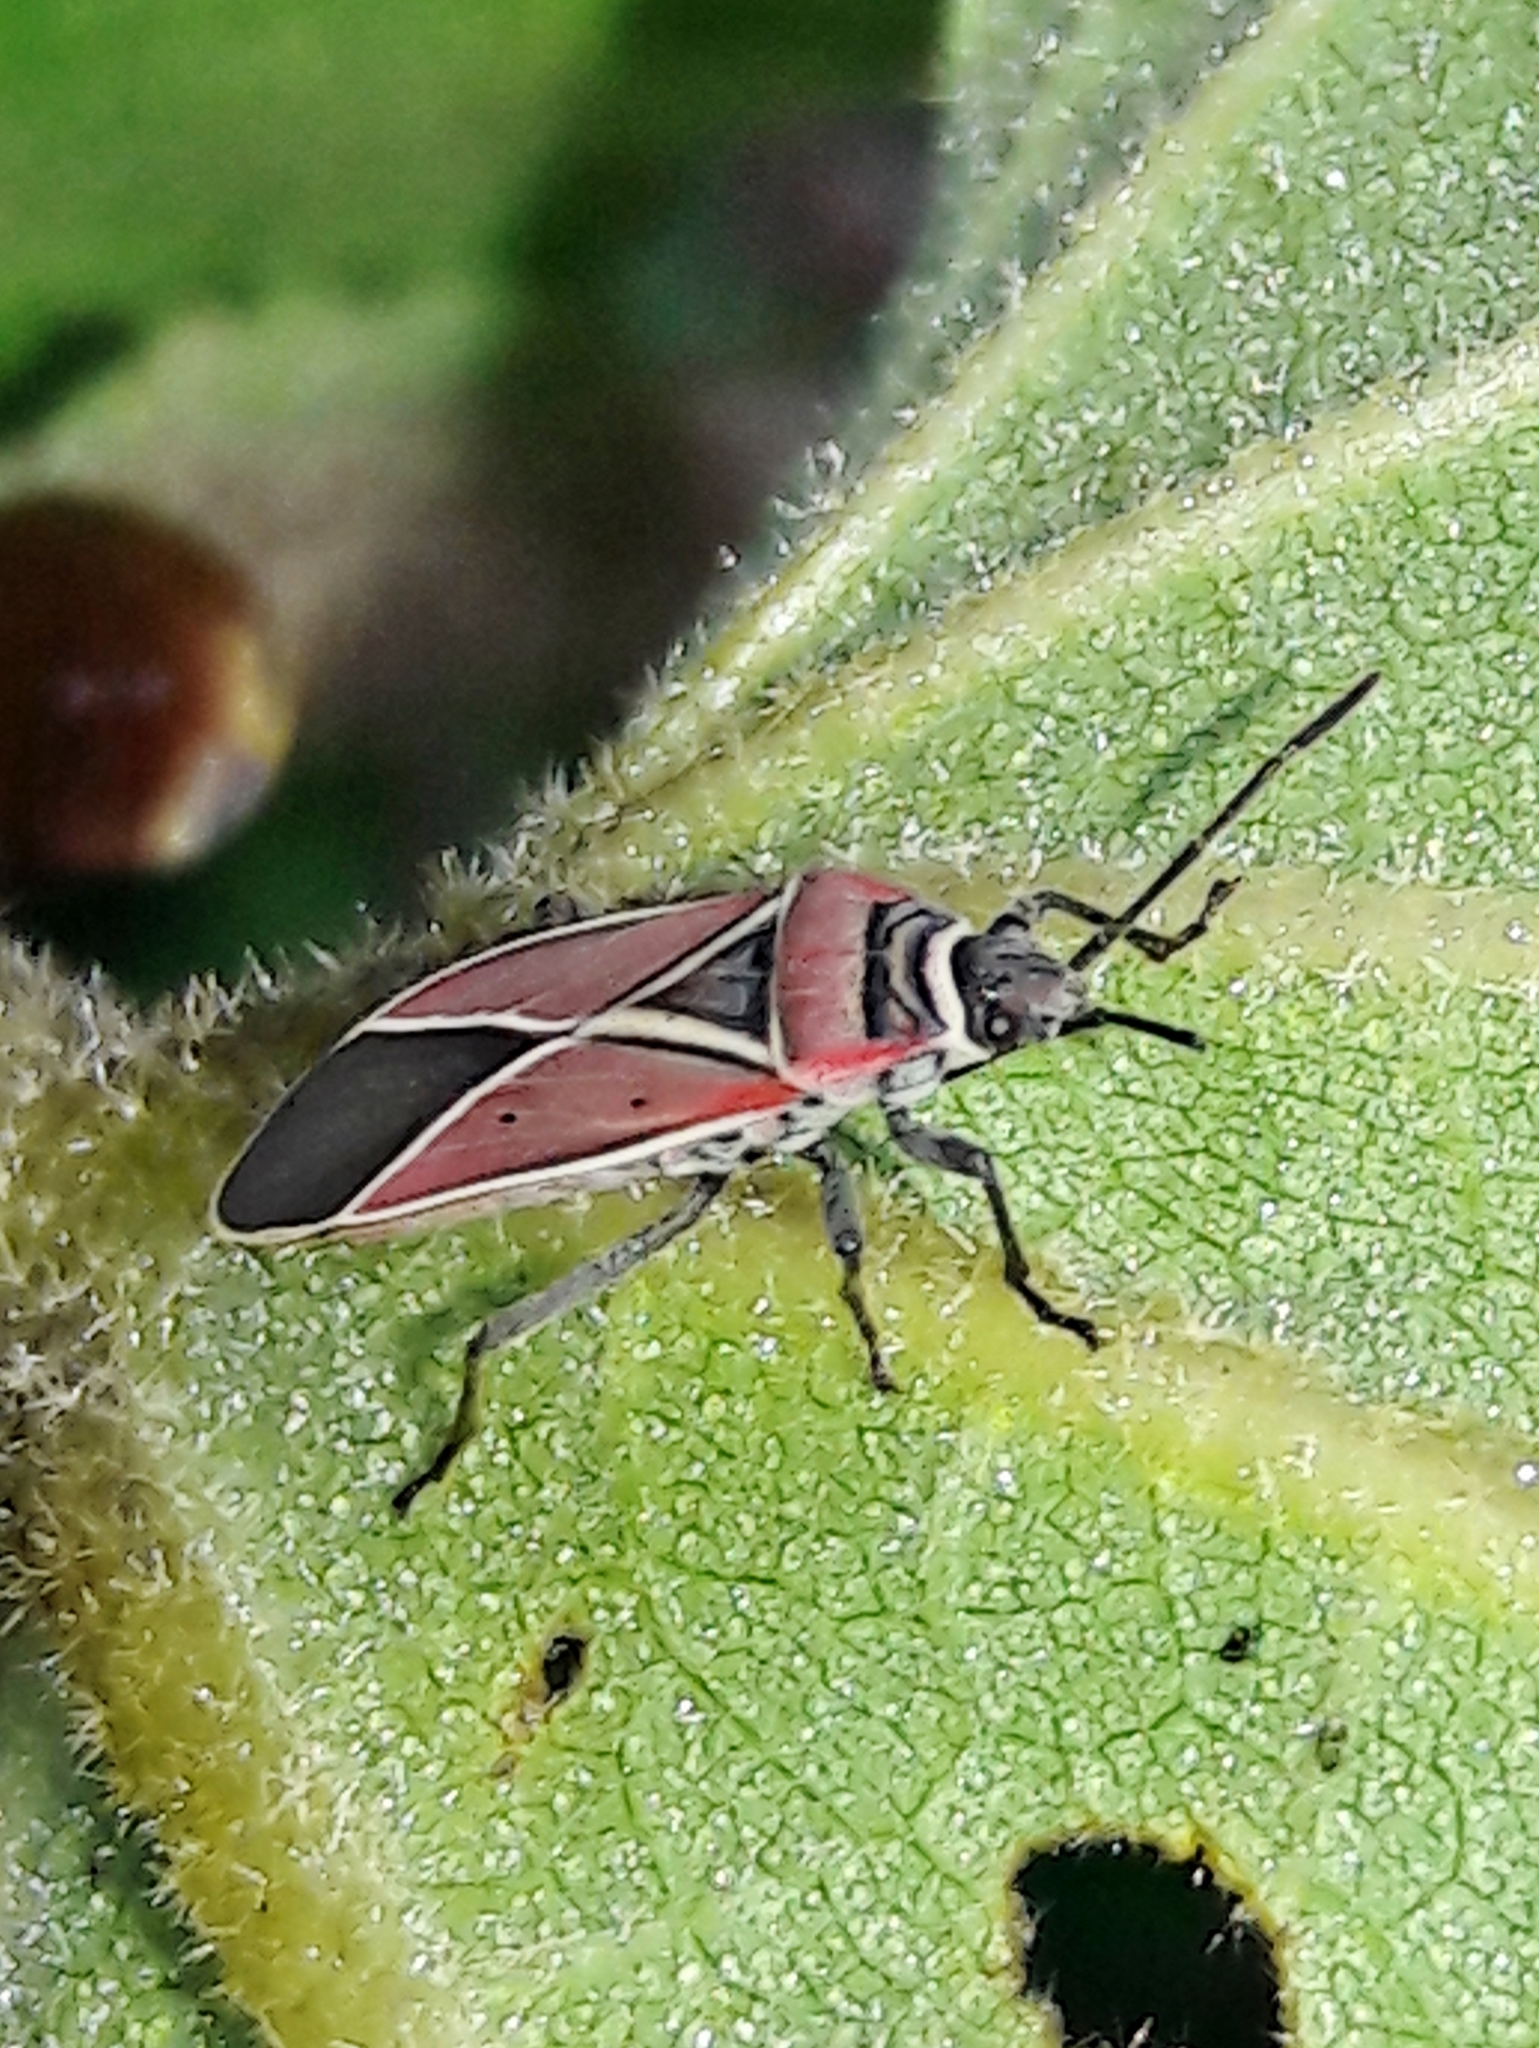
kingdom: Animalia
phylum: Arthropoda
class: Insecta
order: Hemiptera
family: Lygaeidae
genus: Neacoryphus
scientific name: Neacoryphus bicrucis
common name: Lygaeid bug
